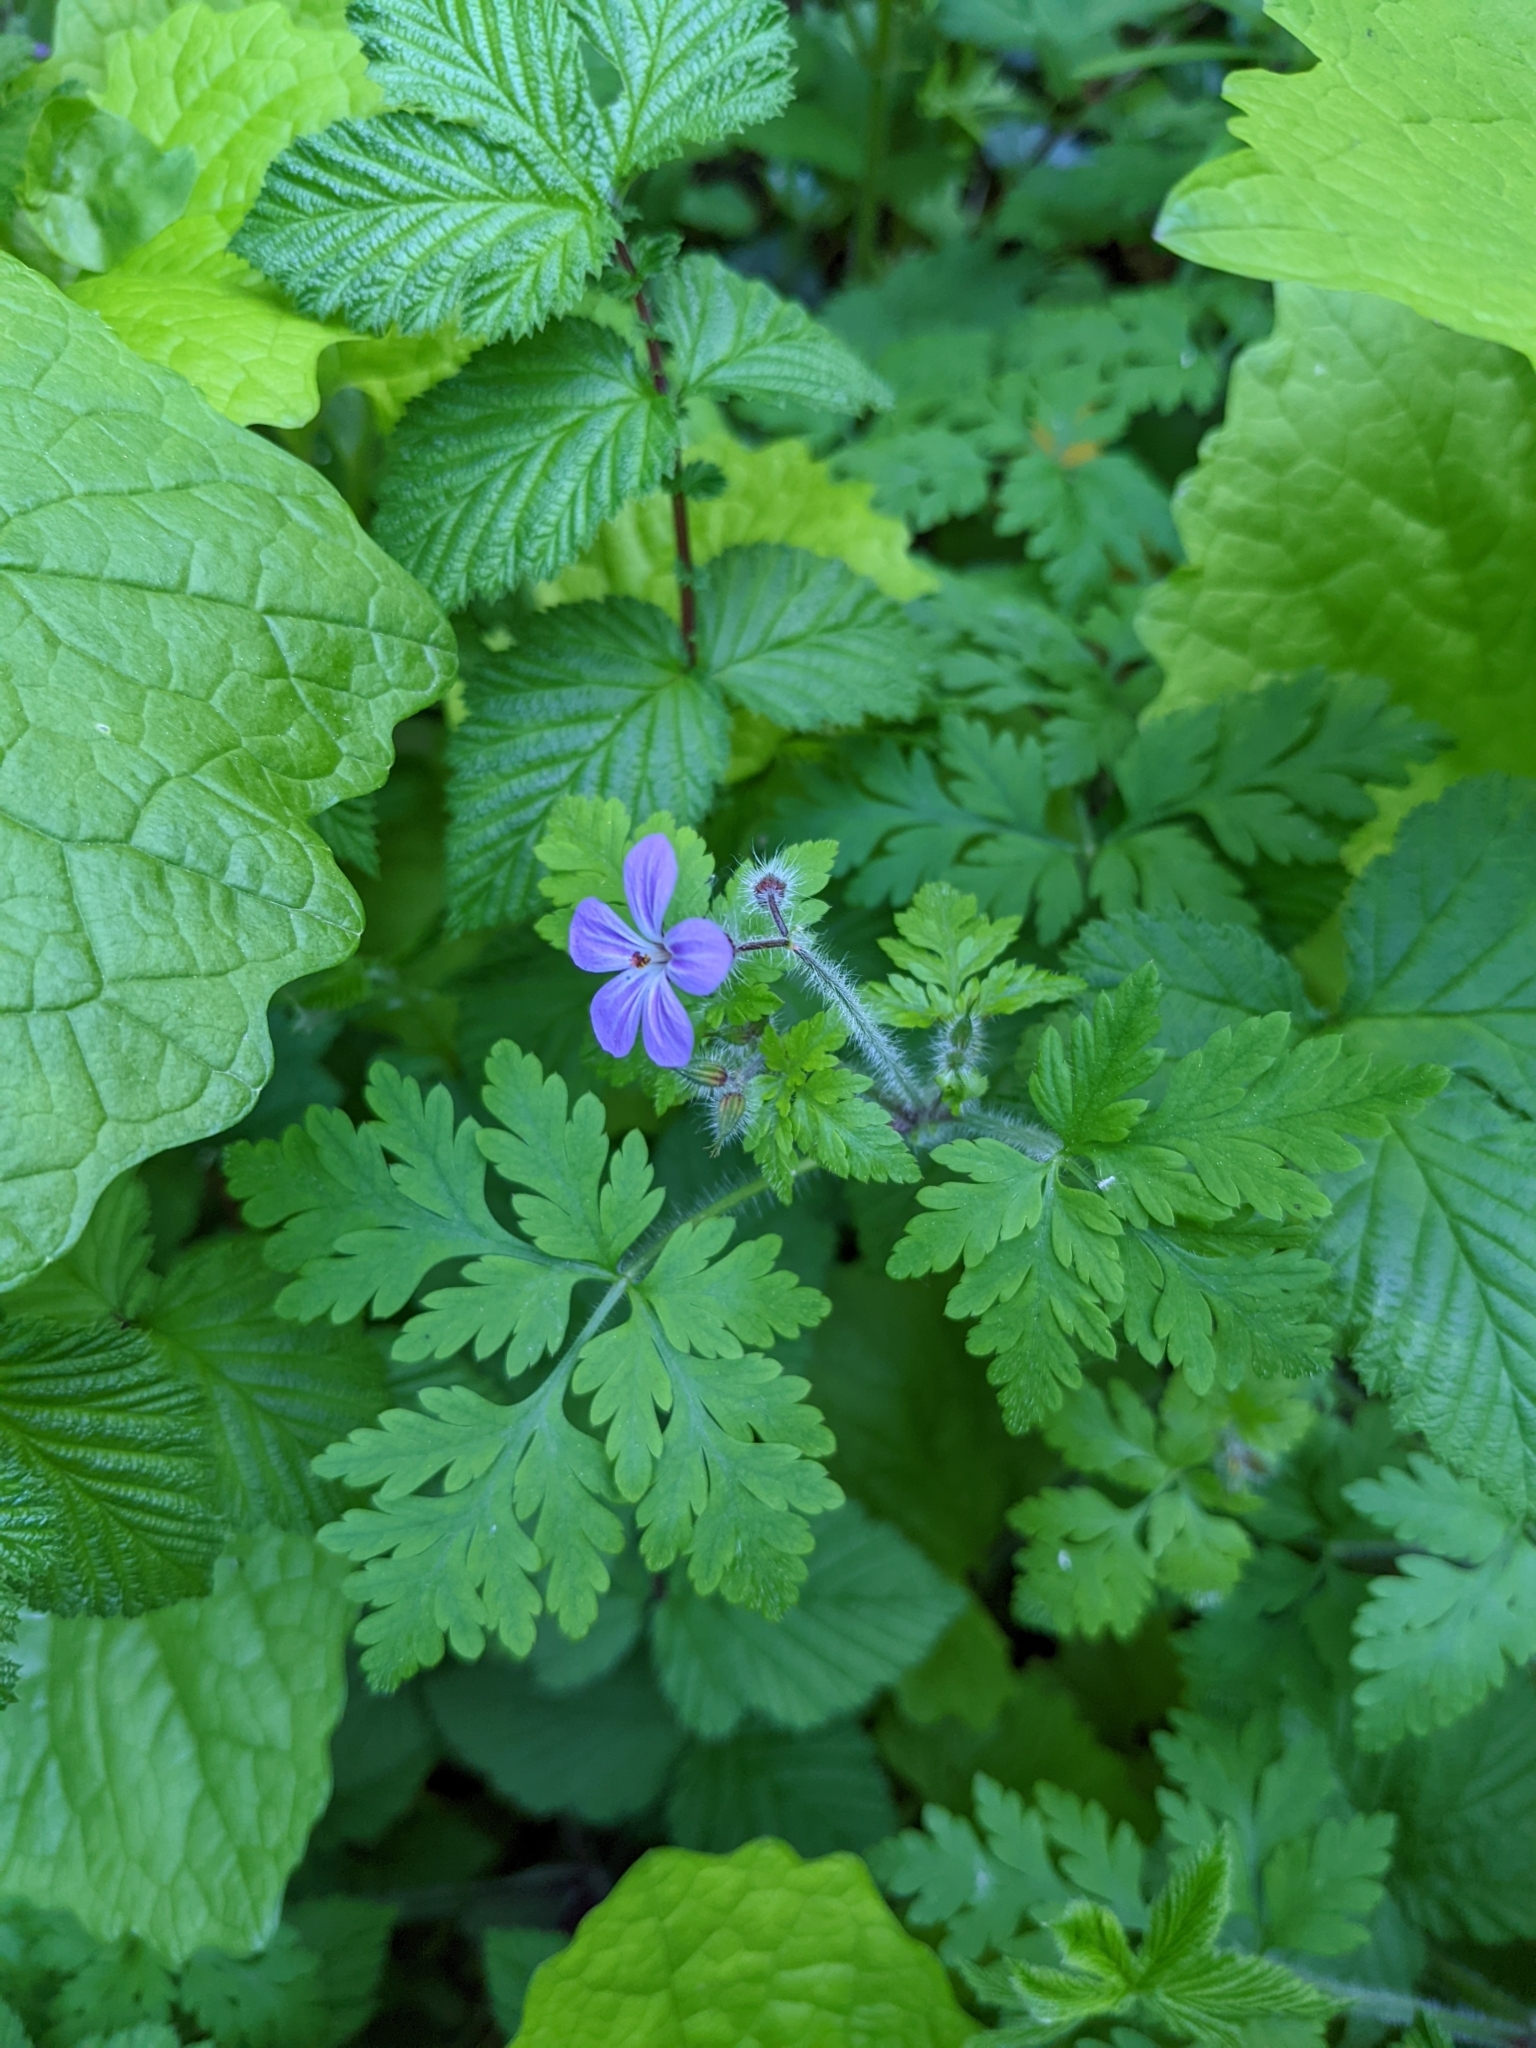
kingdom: Plantae
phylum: Tracheophyta
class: Magnoliopsida
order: Geraniales
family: Geraniaceae
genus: Geranium
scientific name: Geranium robertianum
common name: Herb-robert
